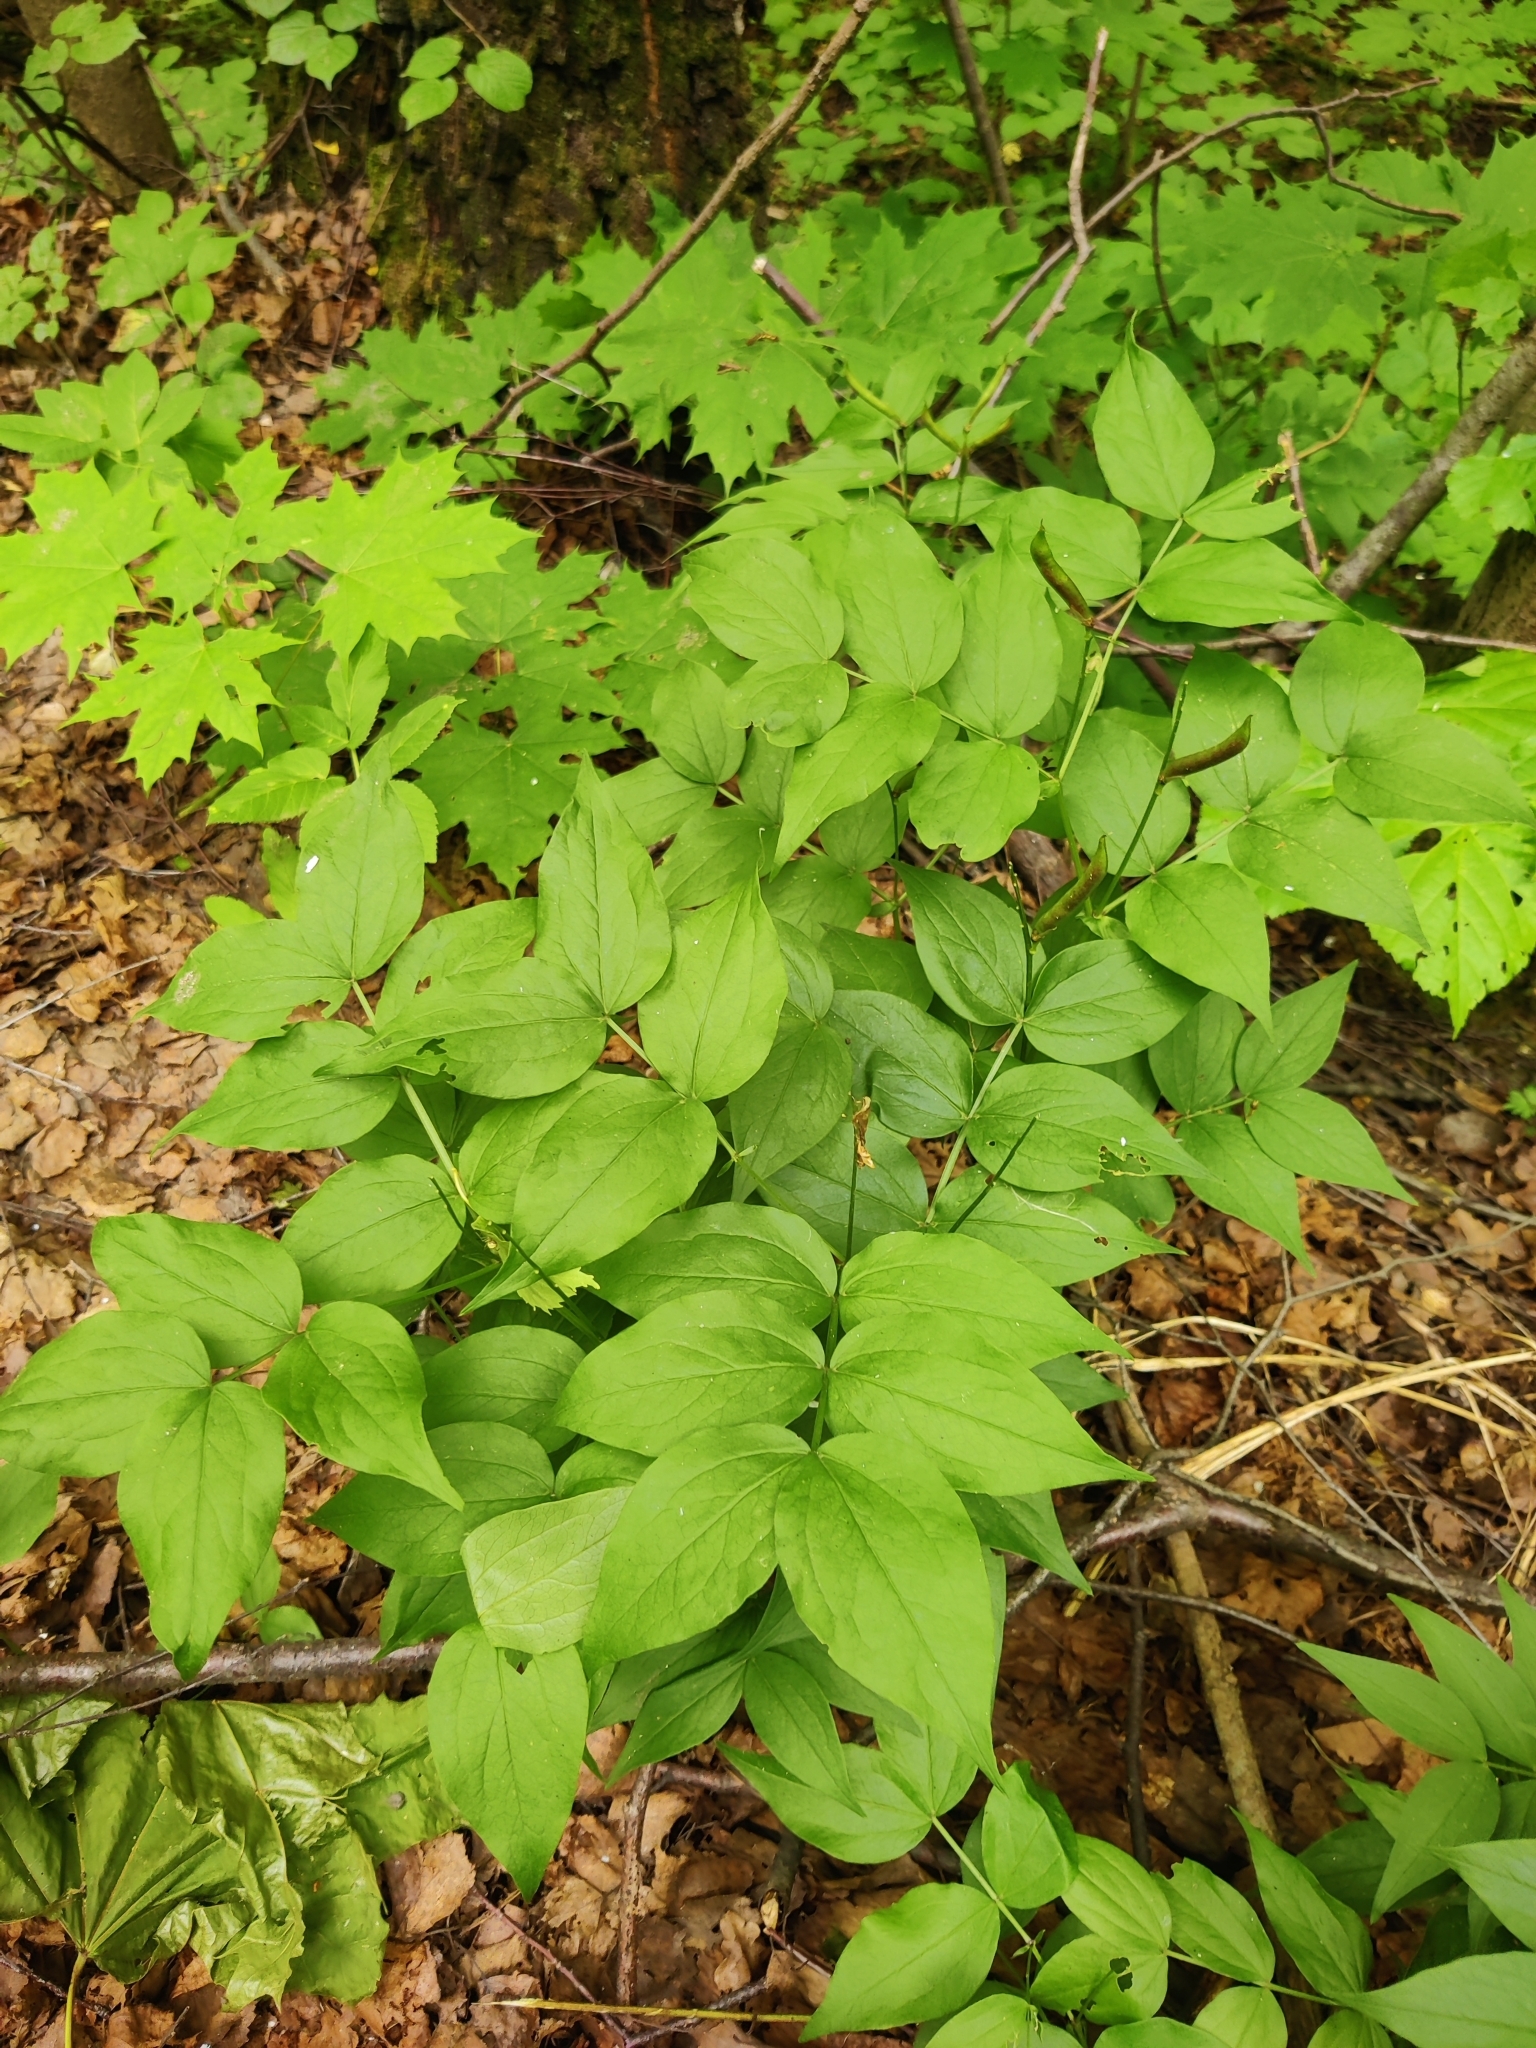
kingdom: Plantae
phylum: Tracheophyta
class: Magnoliopsida
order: Fabales
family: Fabaceae
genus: Lathyrus
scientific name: Lathyrus vernus
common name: Spring pea
